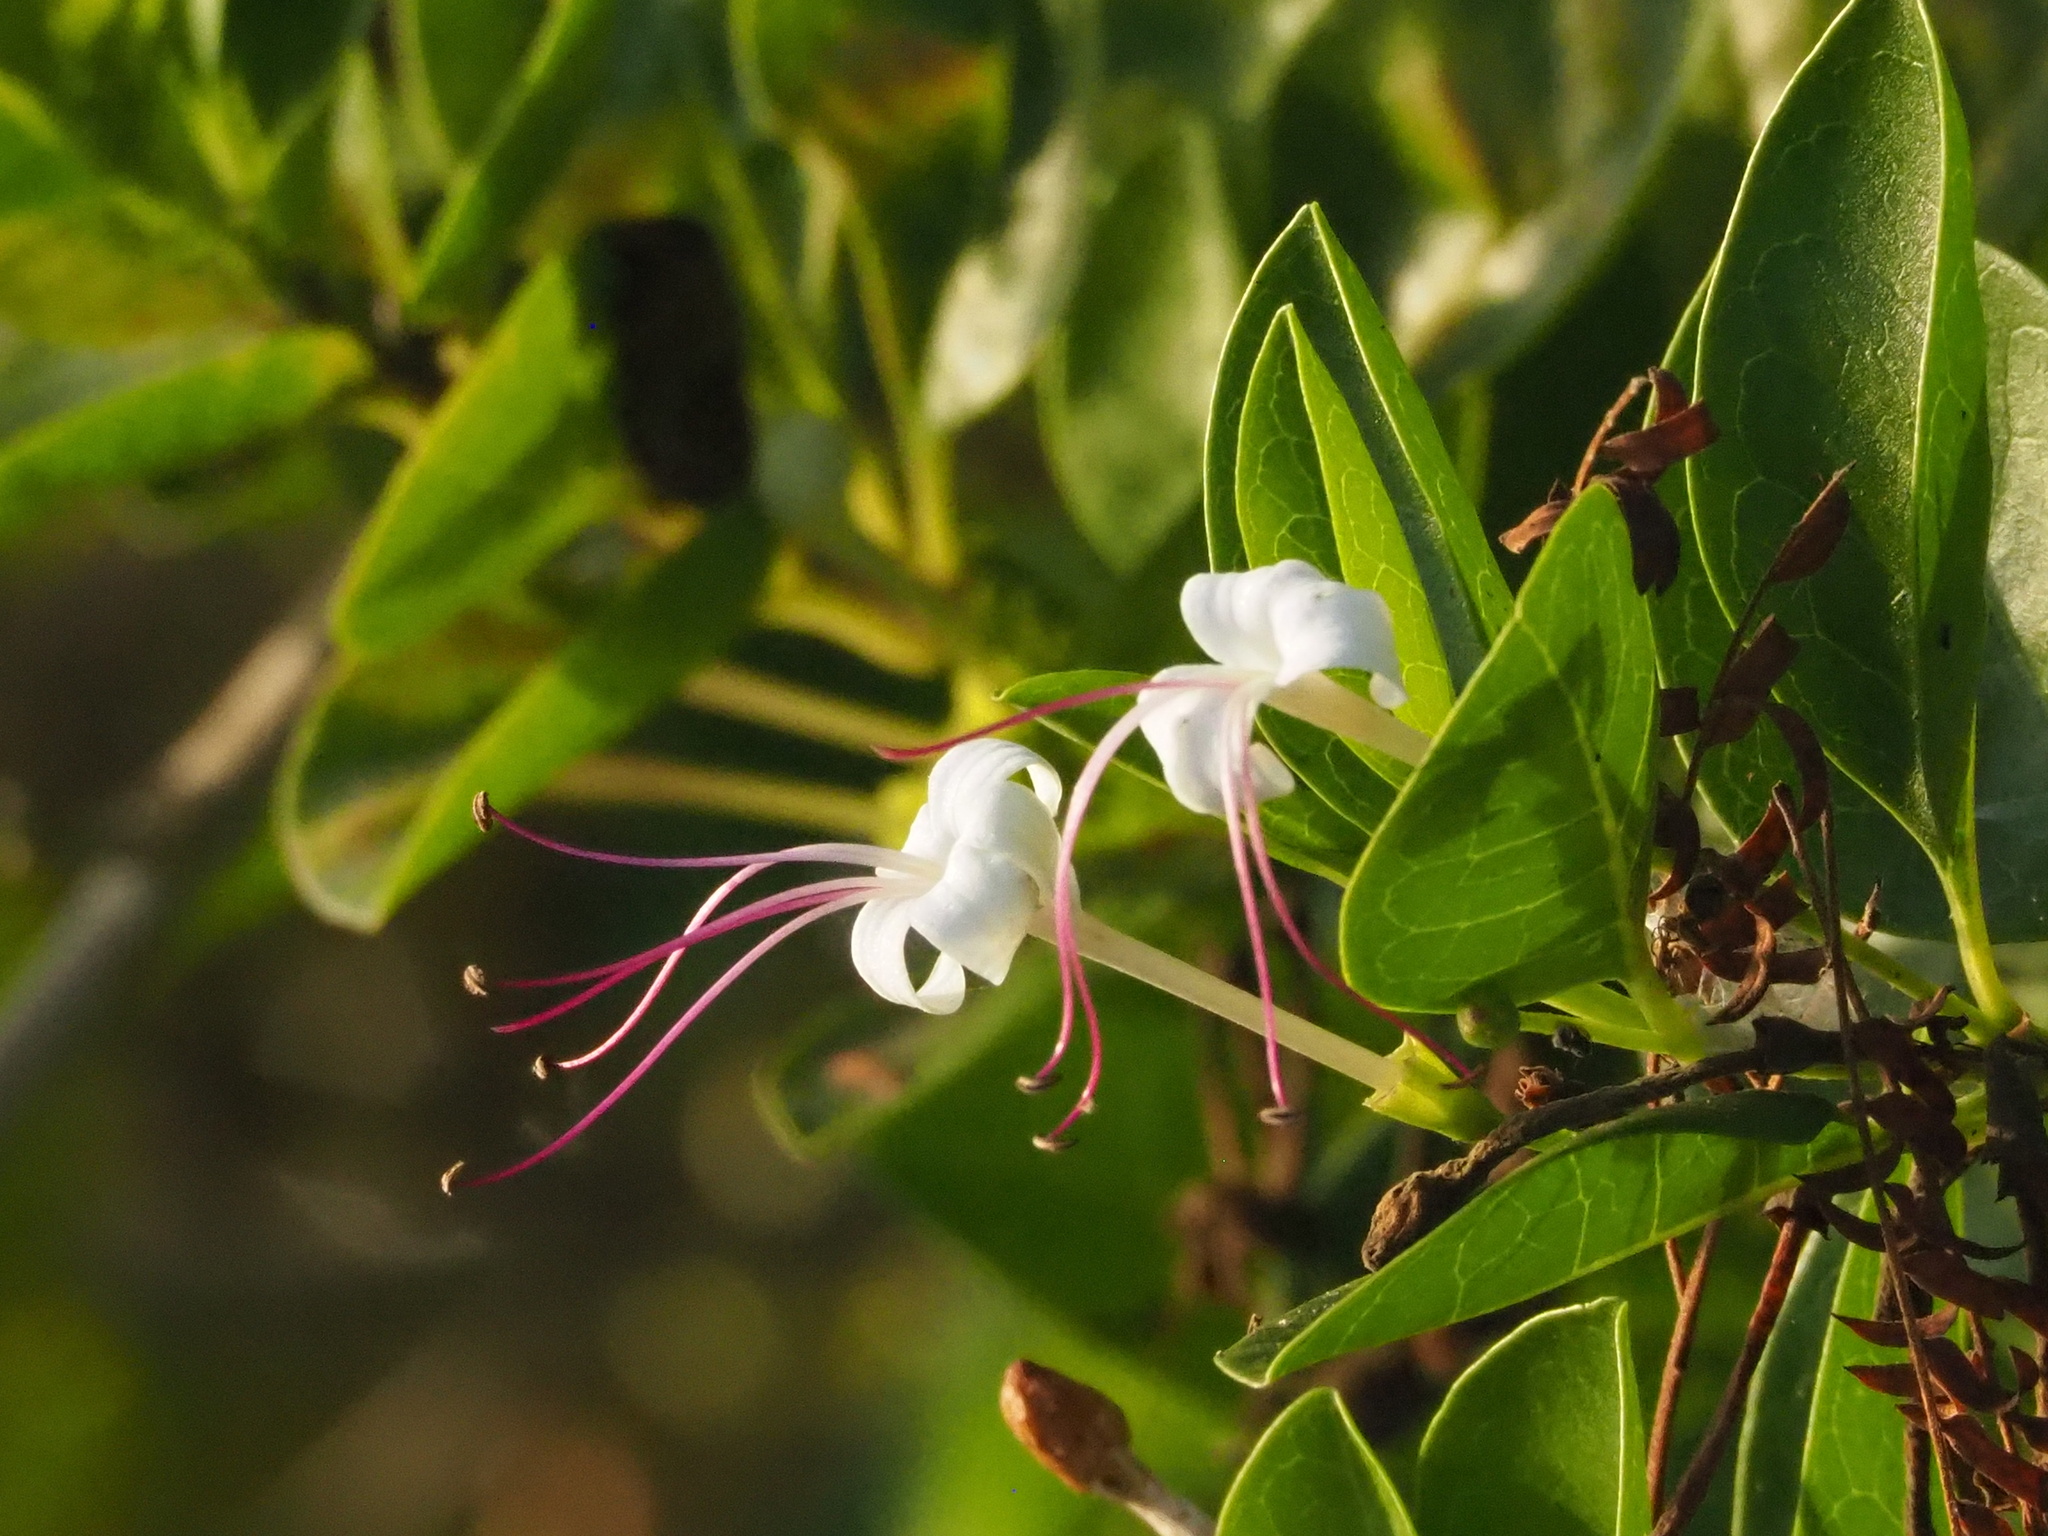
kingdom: Plantae
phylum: Tracheophyta
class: Magnoliopsida
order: Lamiales
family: Lamiaceae
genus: Volkameria
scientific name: Volkameria inermis
